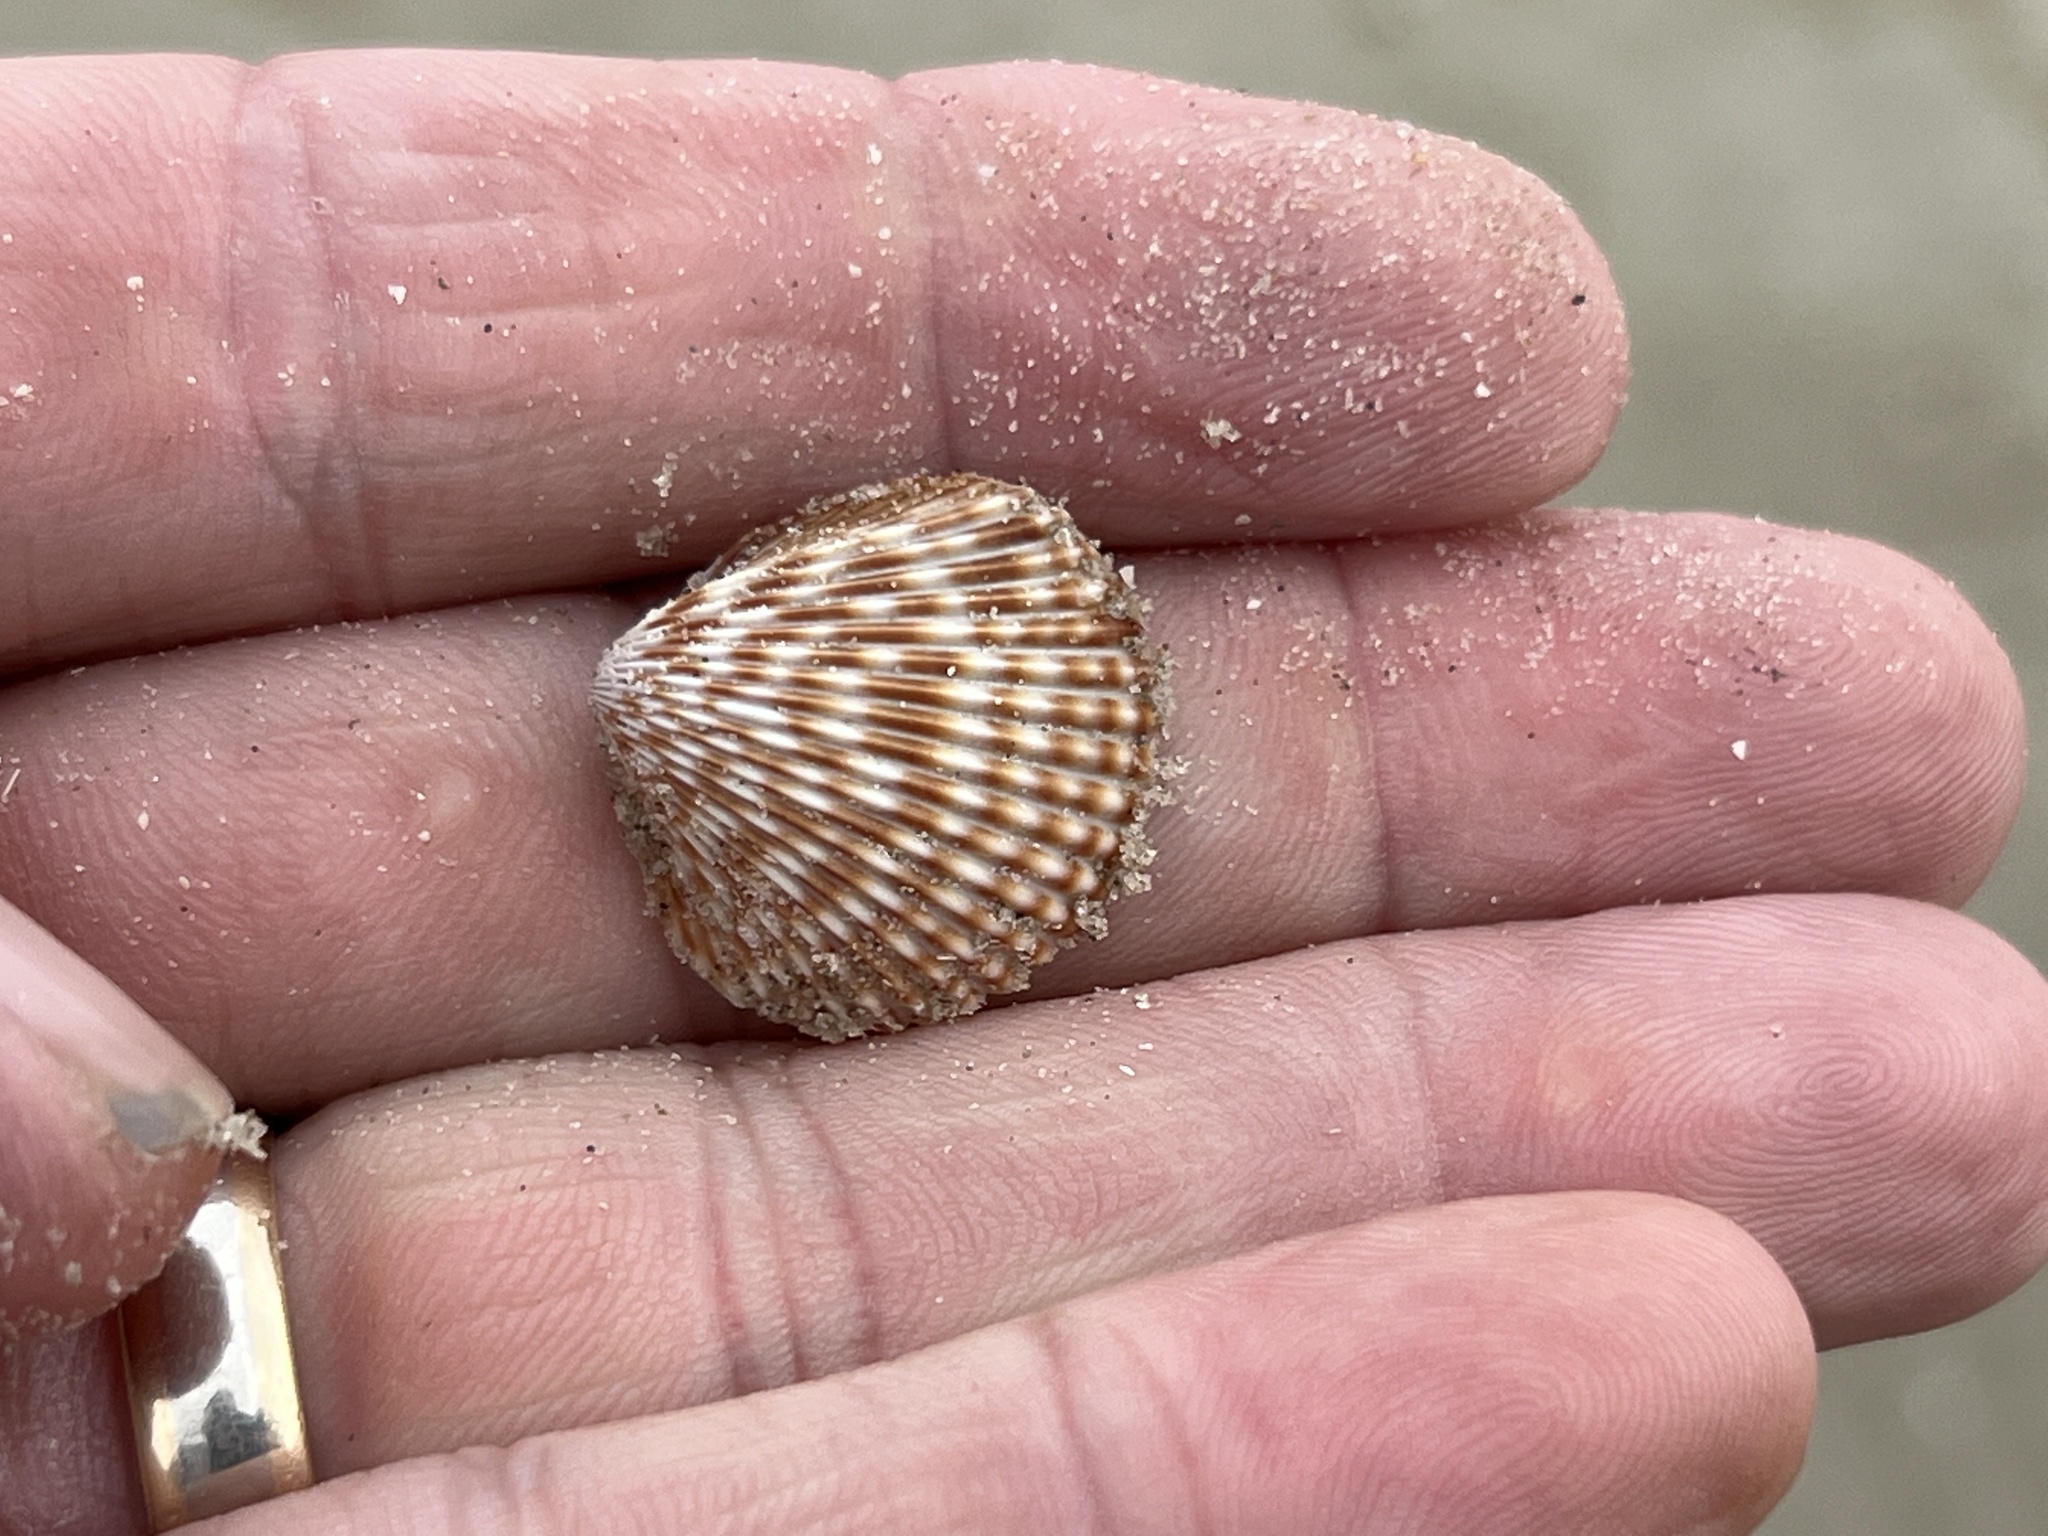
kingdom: Animalia
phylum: Mollusca
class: Bivalvia
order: Cardiida
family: Cardiidae
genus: Dinocardium
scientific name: Dinocardium robustum
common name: Atlantic giant cockle
